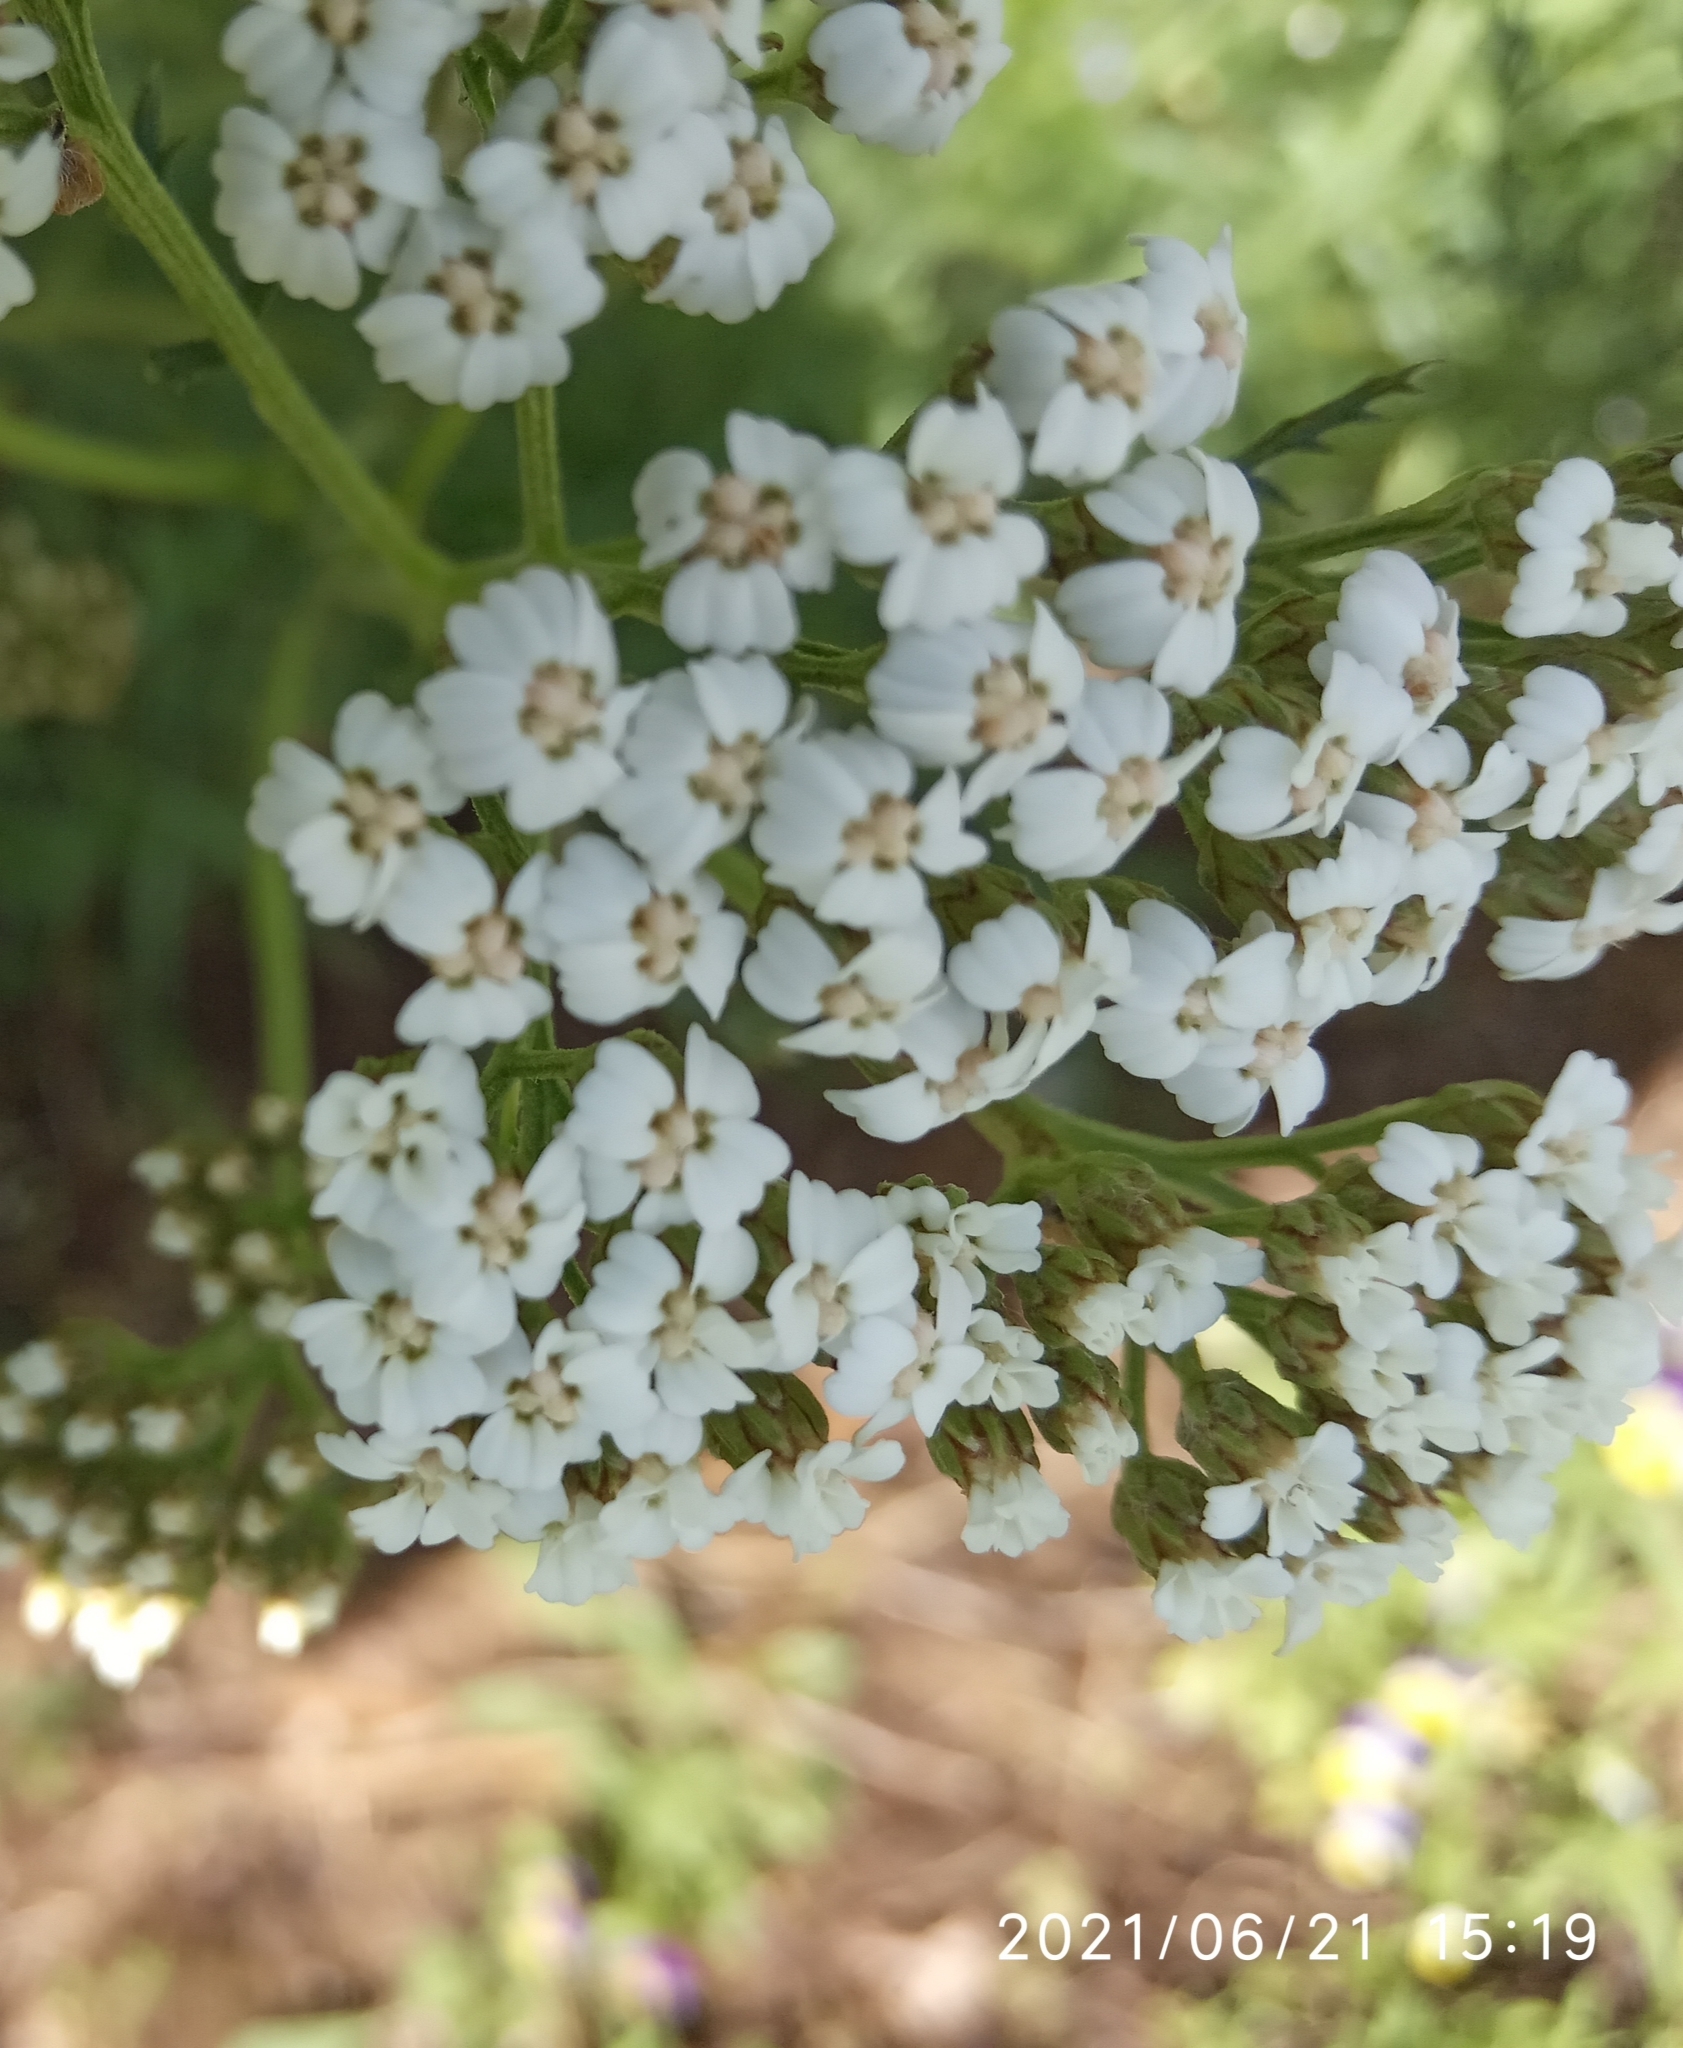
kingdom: Plantae
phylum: Tracheophyta
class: Magnoliopsida
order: Asterales
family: Asteraceae
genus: Achillea
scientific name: Achillea millefolium
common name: Yarrow
